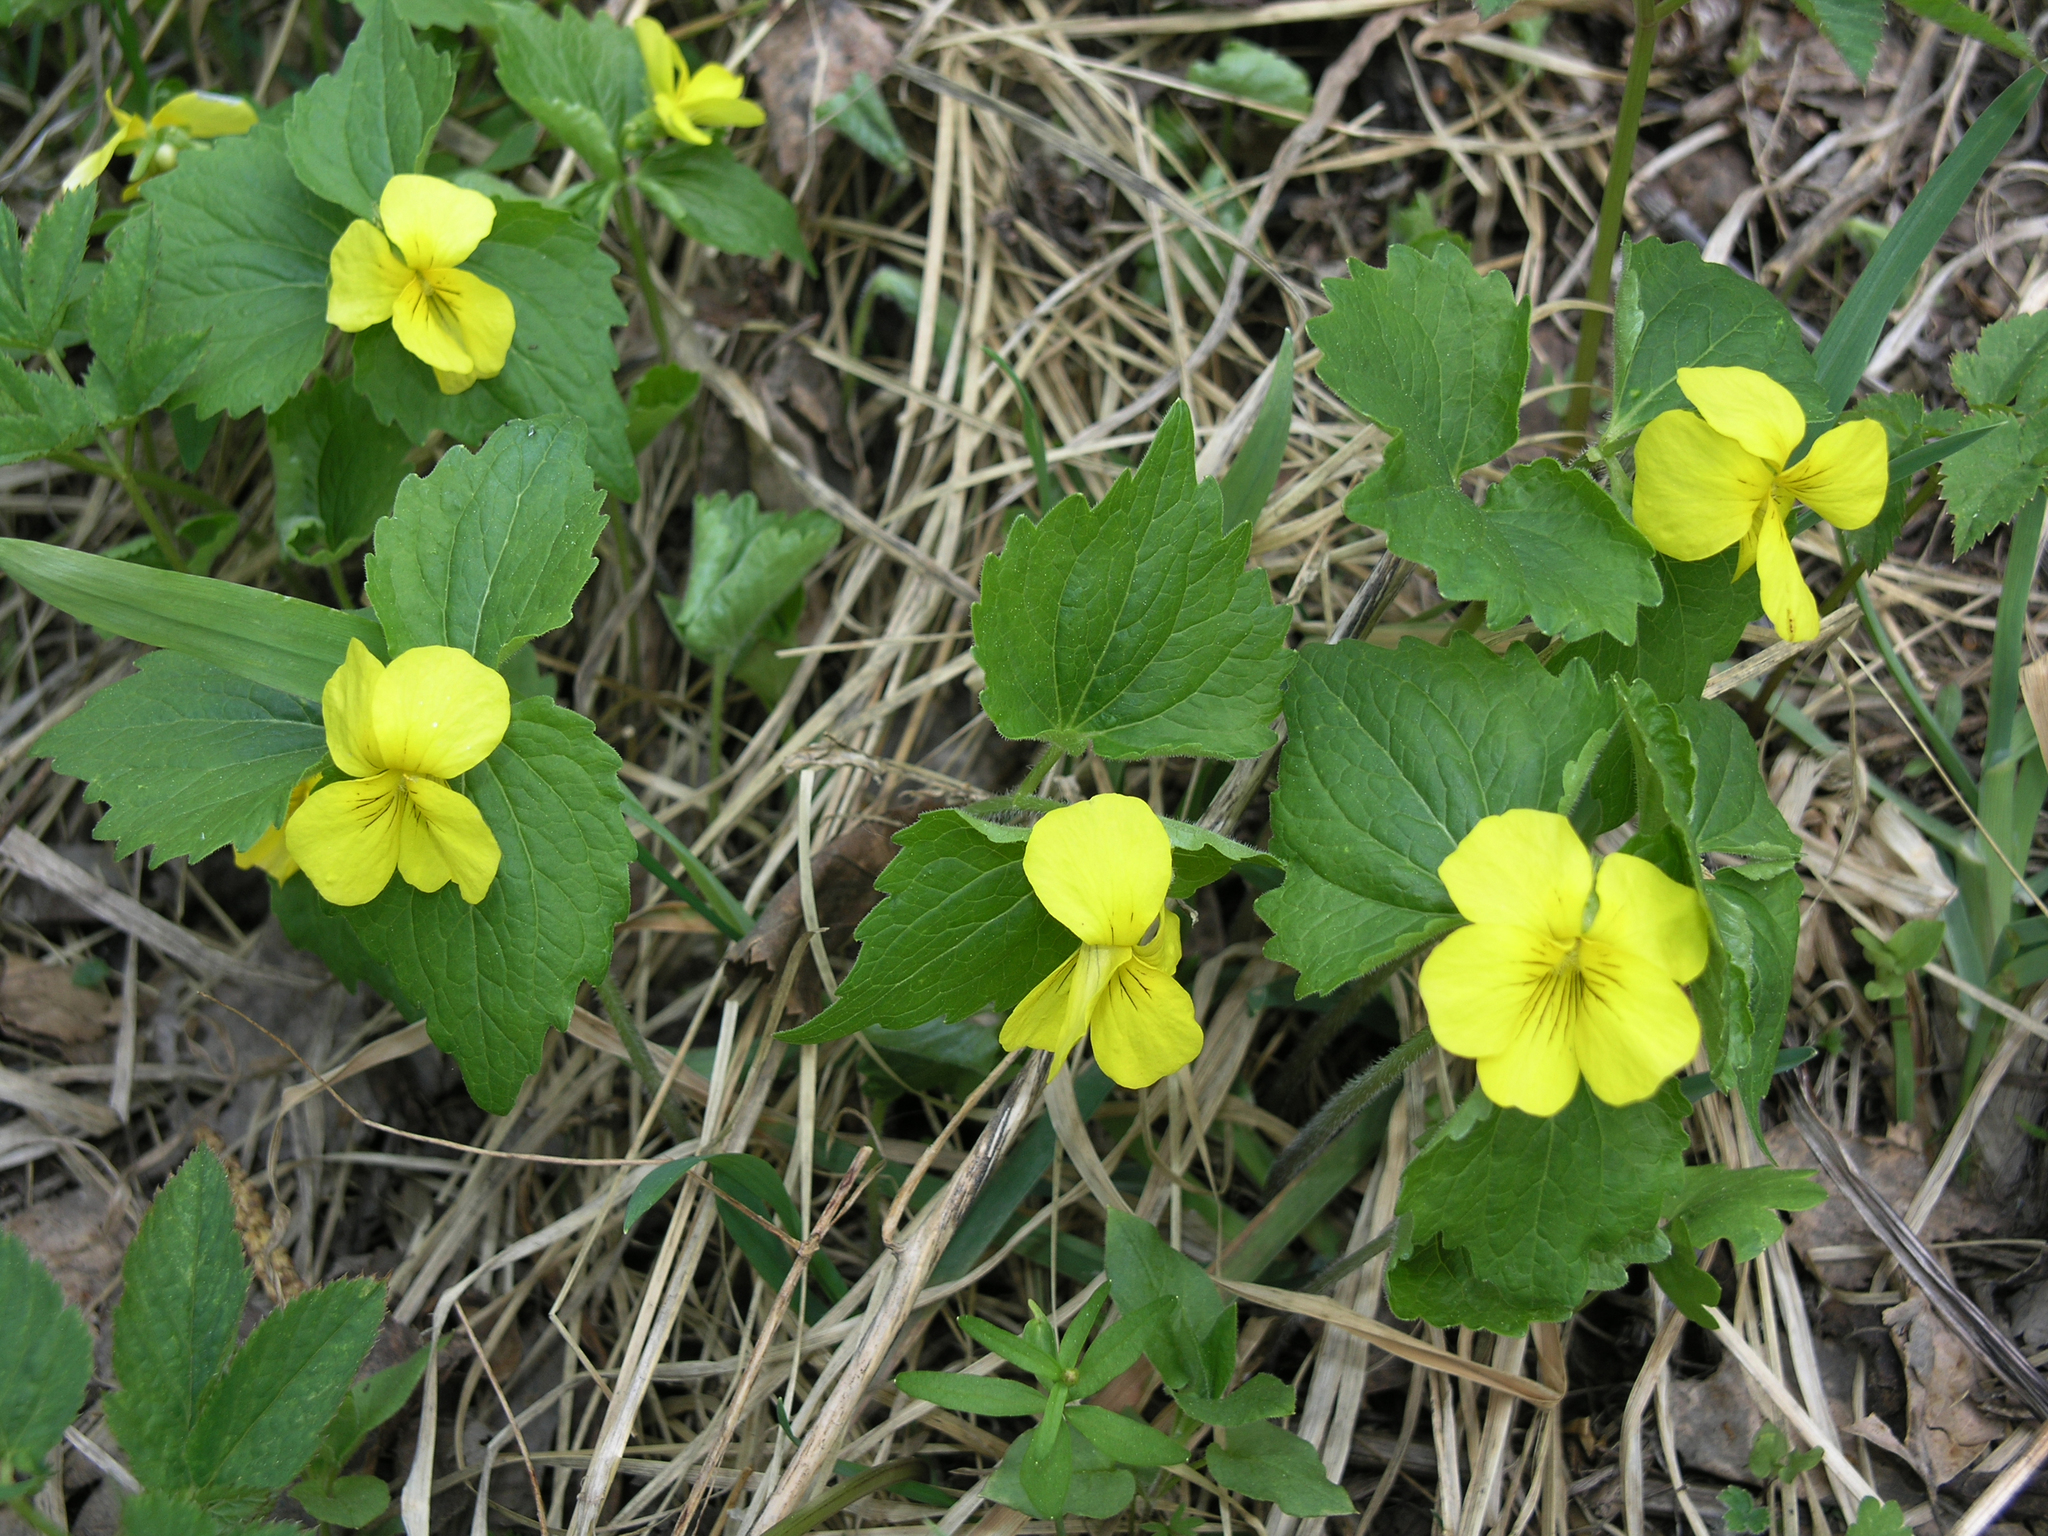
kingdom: Plantae
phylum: Tracheophyta
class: Magnoliopsida
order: Malpighiales
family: Violaceae
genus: Viola
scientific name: Viola uniflora
